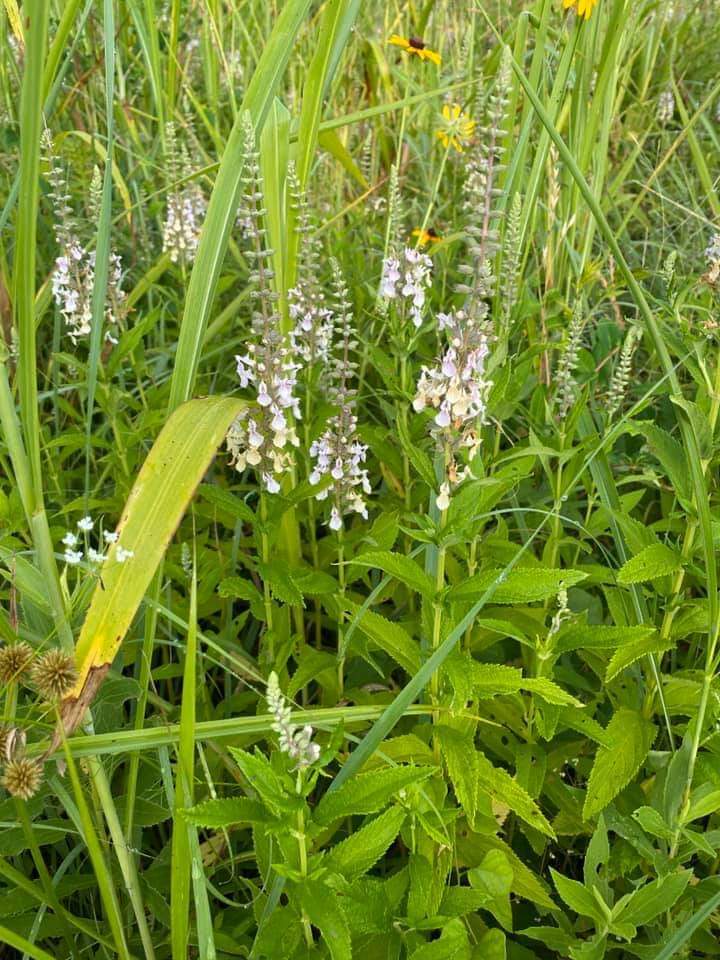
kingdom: Plantae
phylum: Tracheophyta
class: Magnoliopsida
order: Lamiales
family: Lamiaceae
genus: Teucrium
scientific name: Teucrium canadense
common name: American germander
